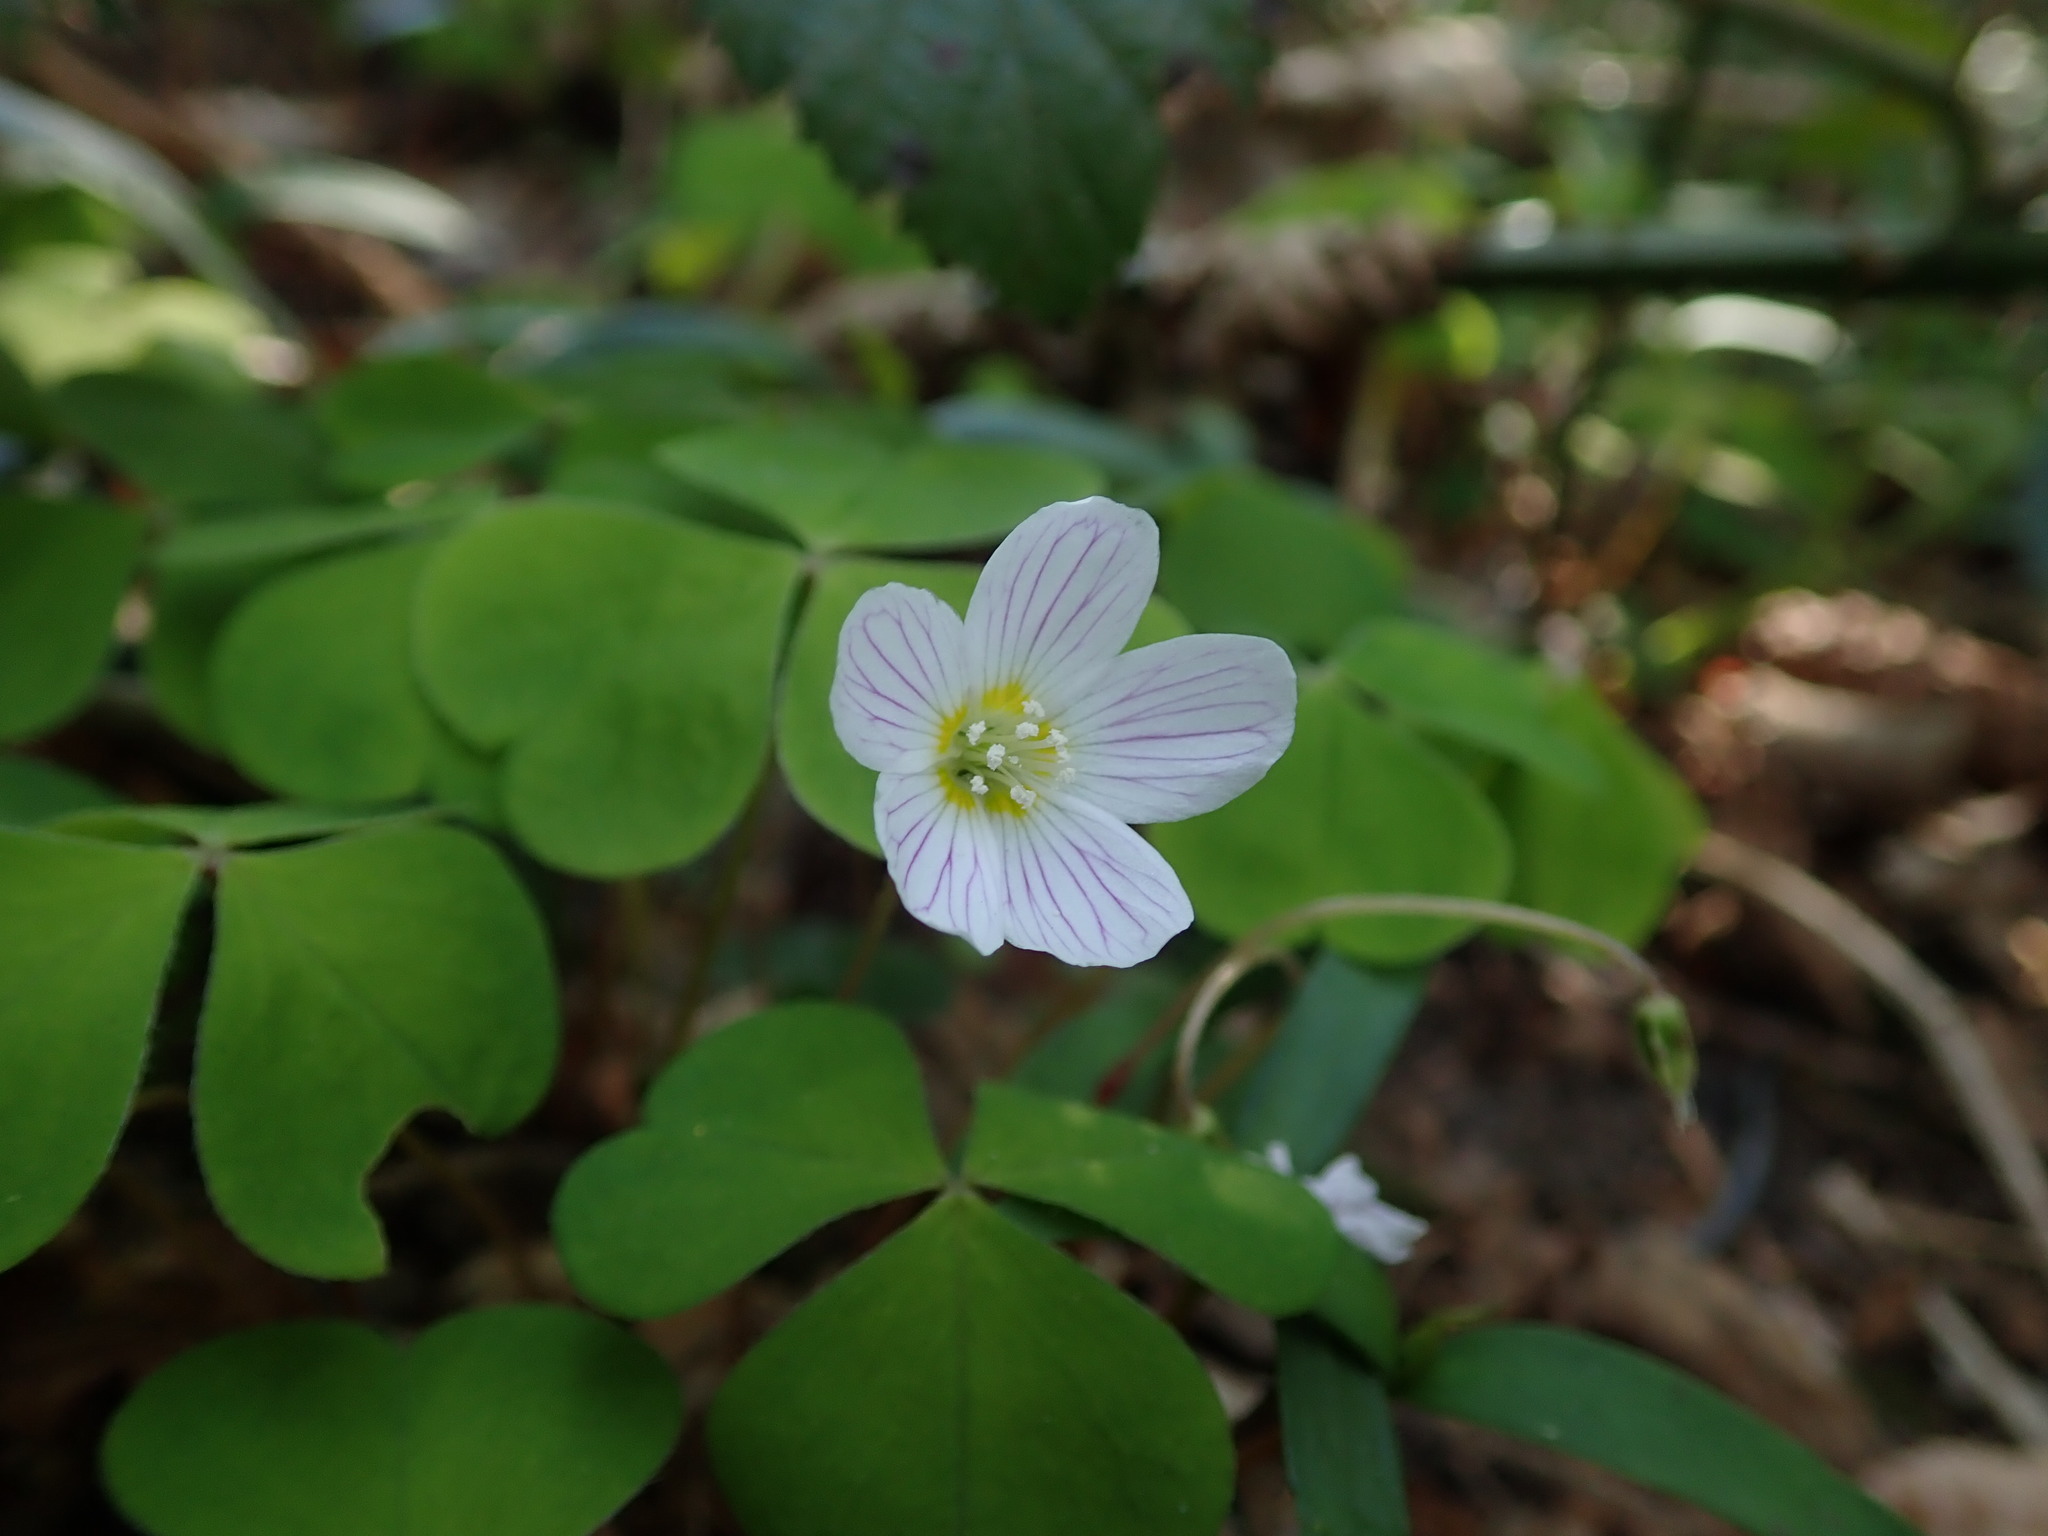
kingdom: Plantae
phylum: Tracheophyta
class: Magnoliopsida
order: Oxalidales
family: Oxalidaceae
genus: Oxalis
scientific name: Oxalis acetosella
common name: Wood-sorrel
